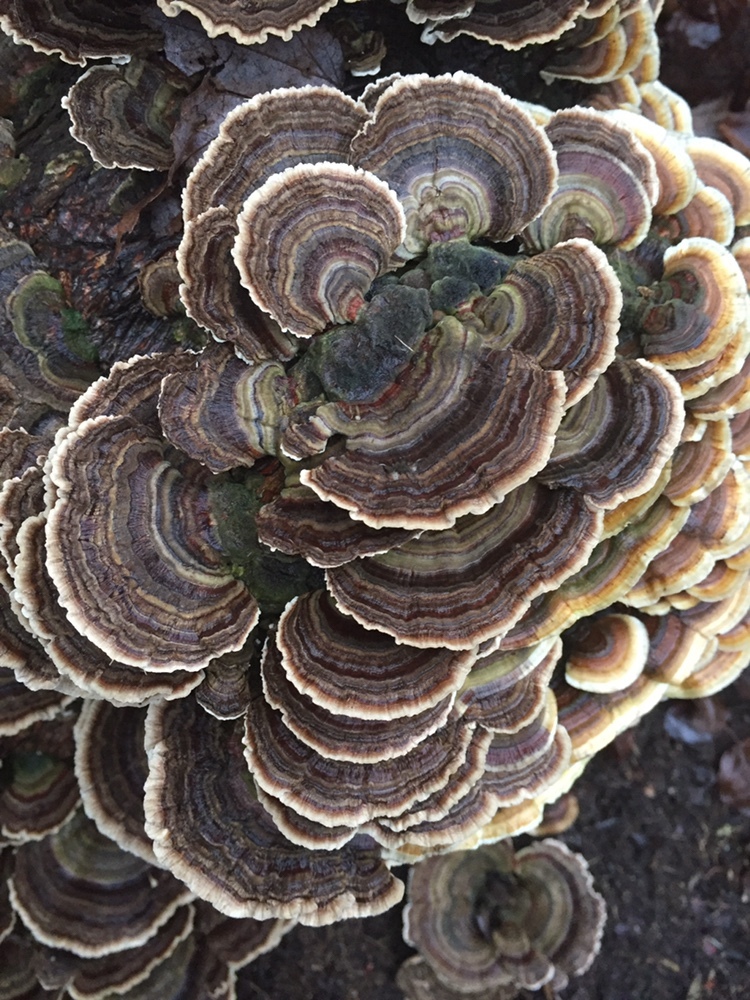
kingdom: Fungi
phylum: Basidiomycota
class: Agaricomycetes
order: Polyporales
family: Polyporaceae
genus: Trametes
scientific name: Trametes versicolor
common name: Turkeytail
